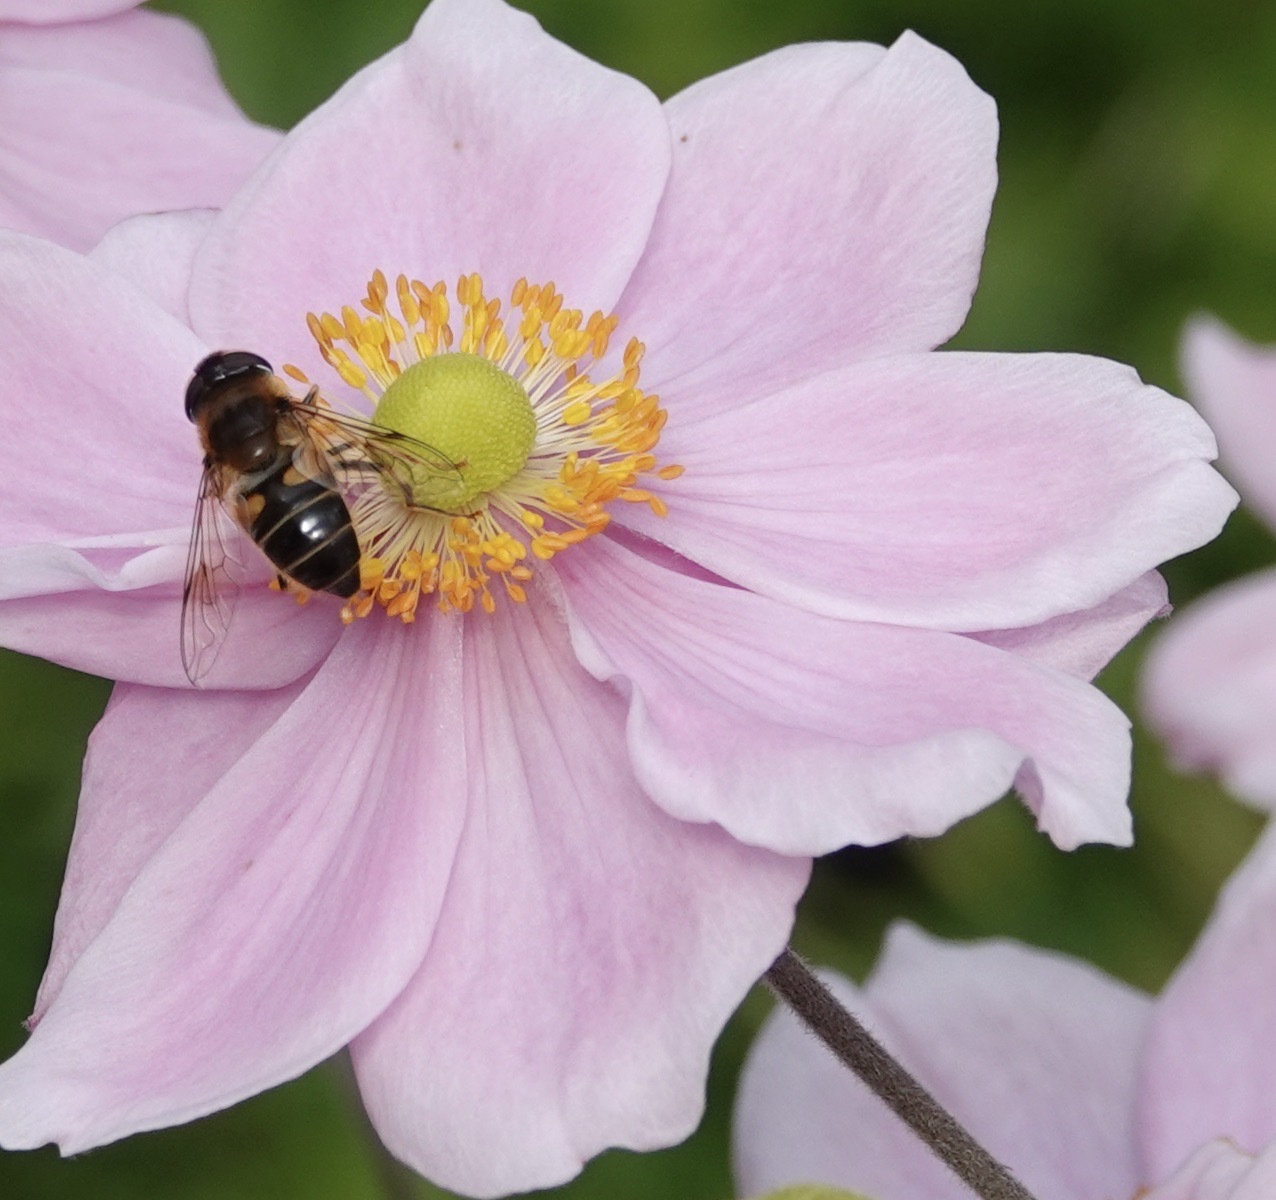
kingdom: Animalia
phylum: Arthropoda
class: Insecta
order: Diptera
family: Syrphidae
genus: Eristalis
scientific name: Eristalis pertinax
